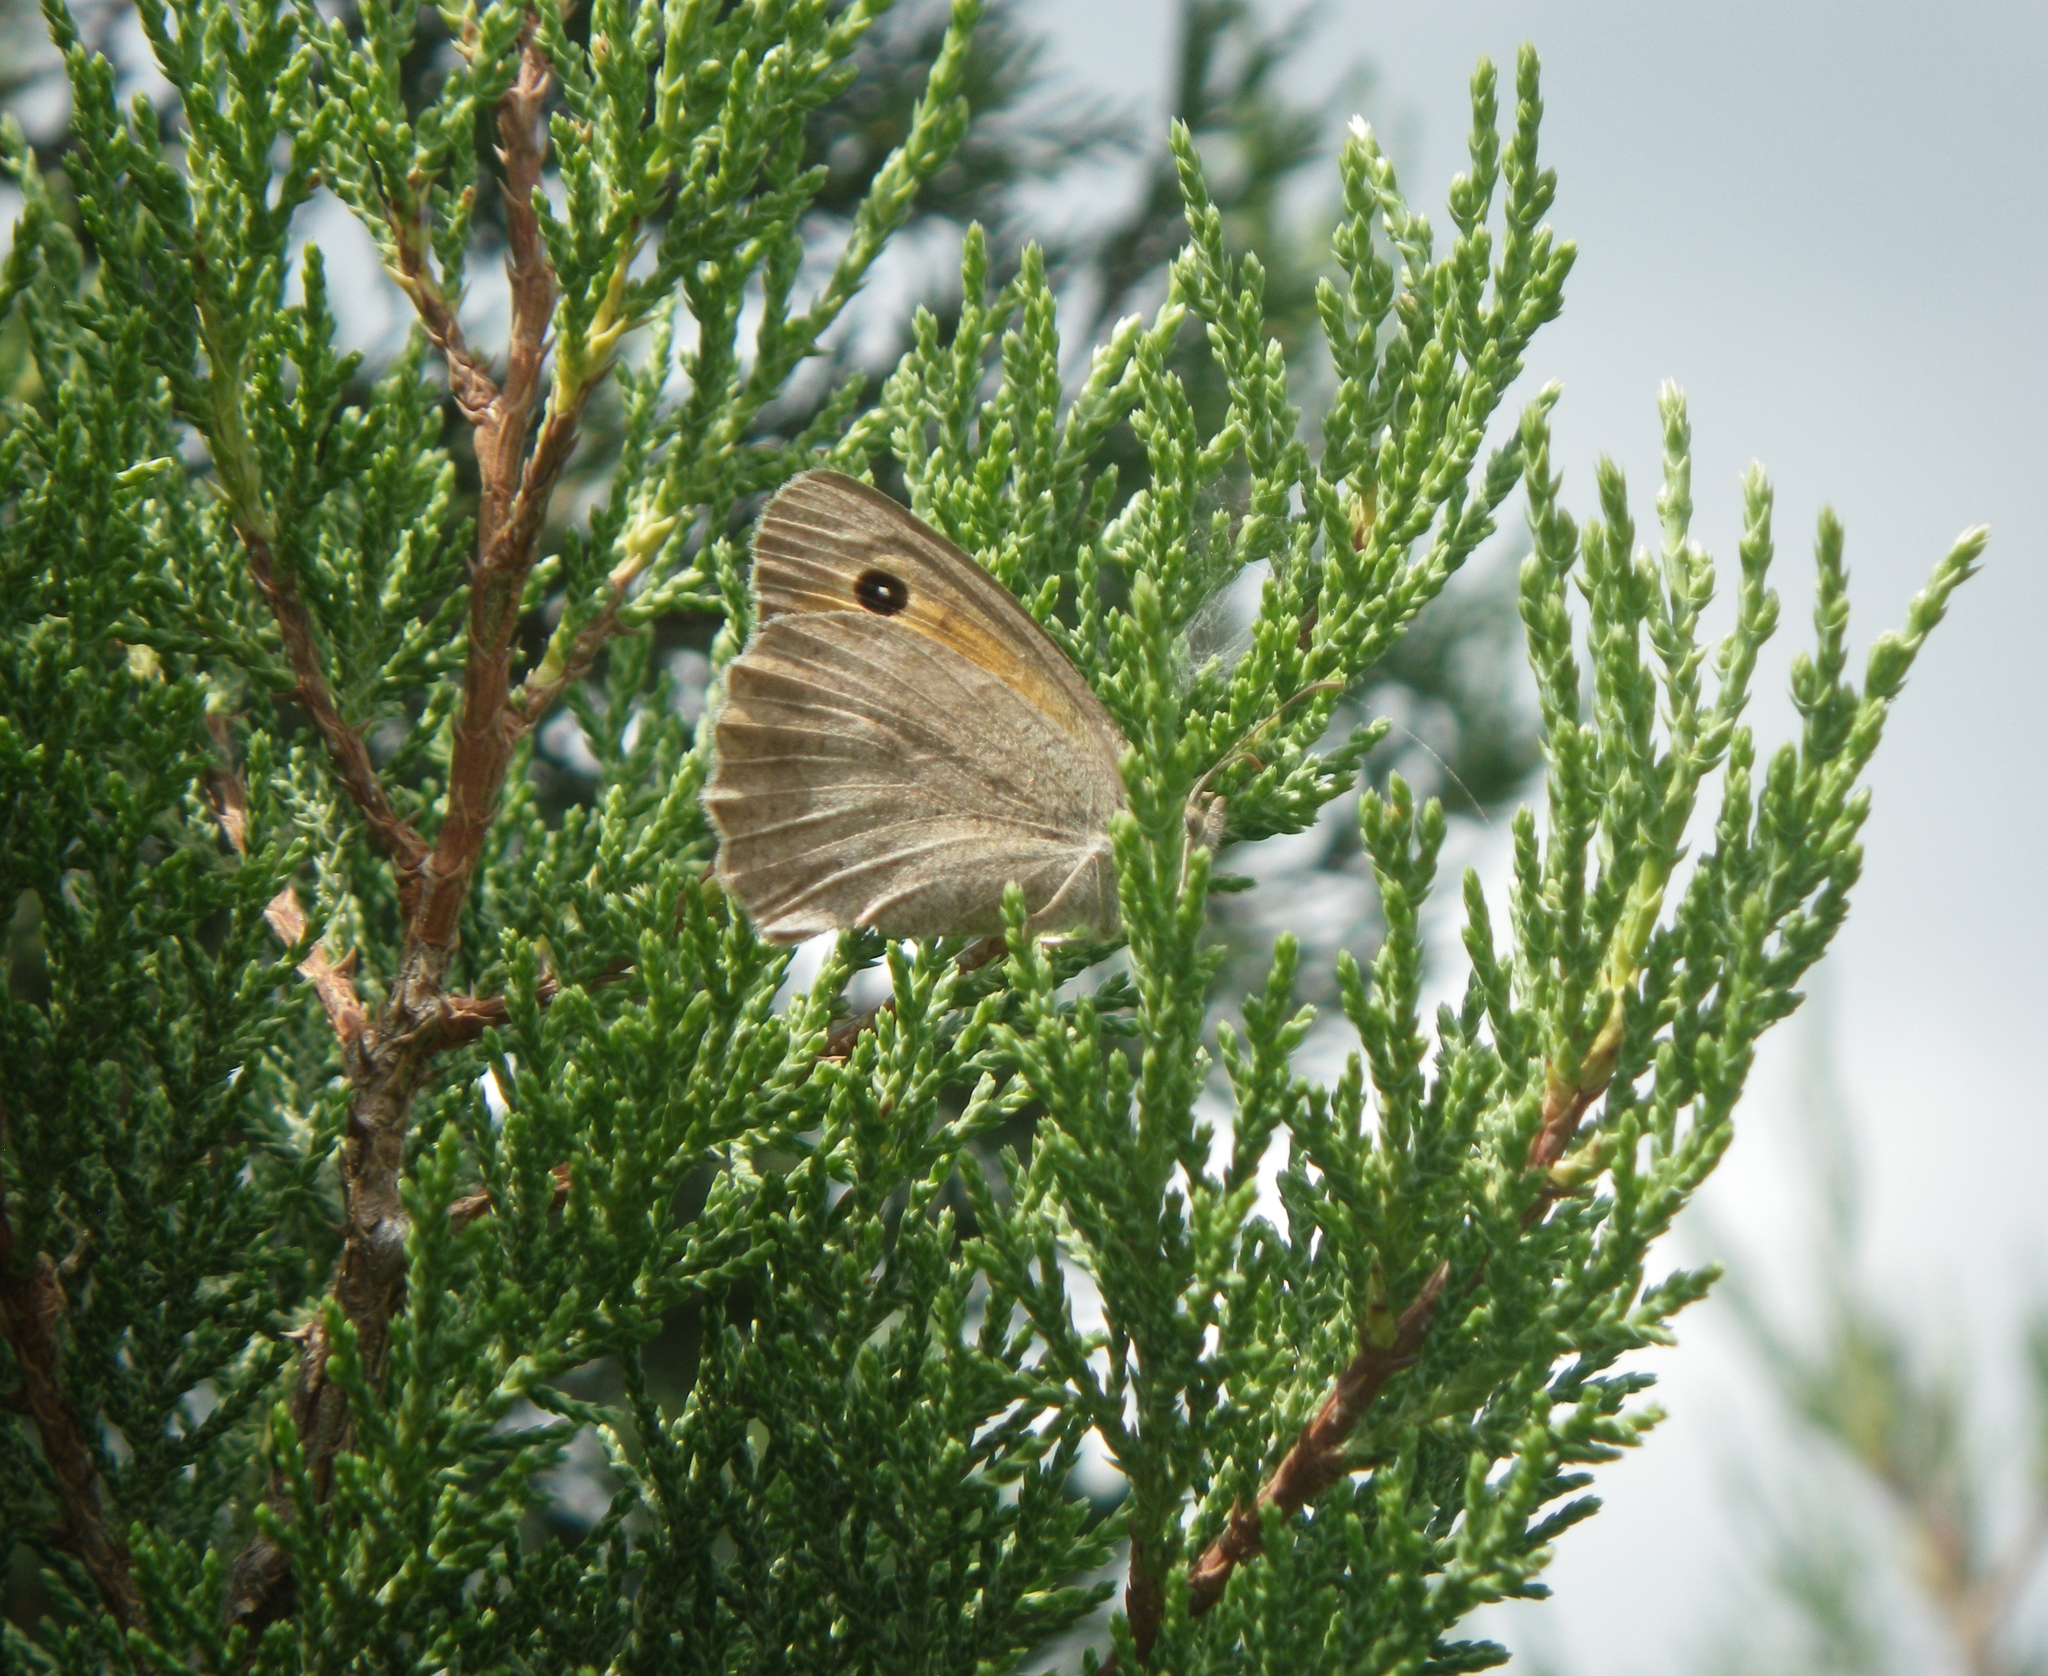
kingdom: Animalia
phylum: Arthropoda
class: Insecta
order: Lepidoptera
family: Nymphalidae
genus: Hyponephele
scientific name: Hyponephele lupinus
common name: Oriental meadow brown
